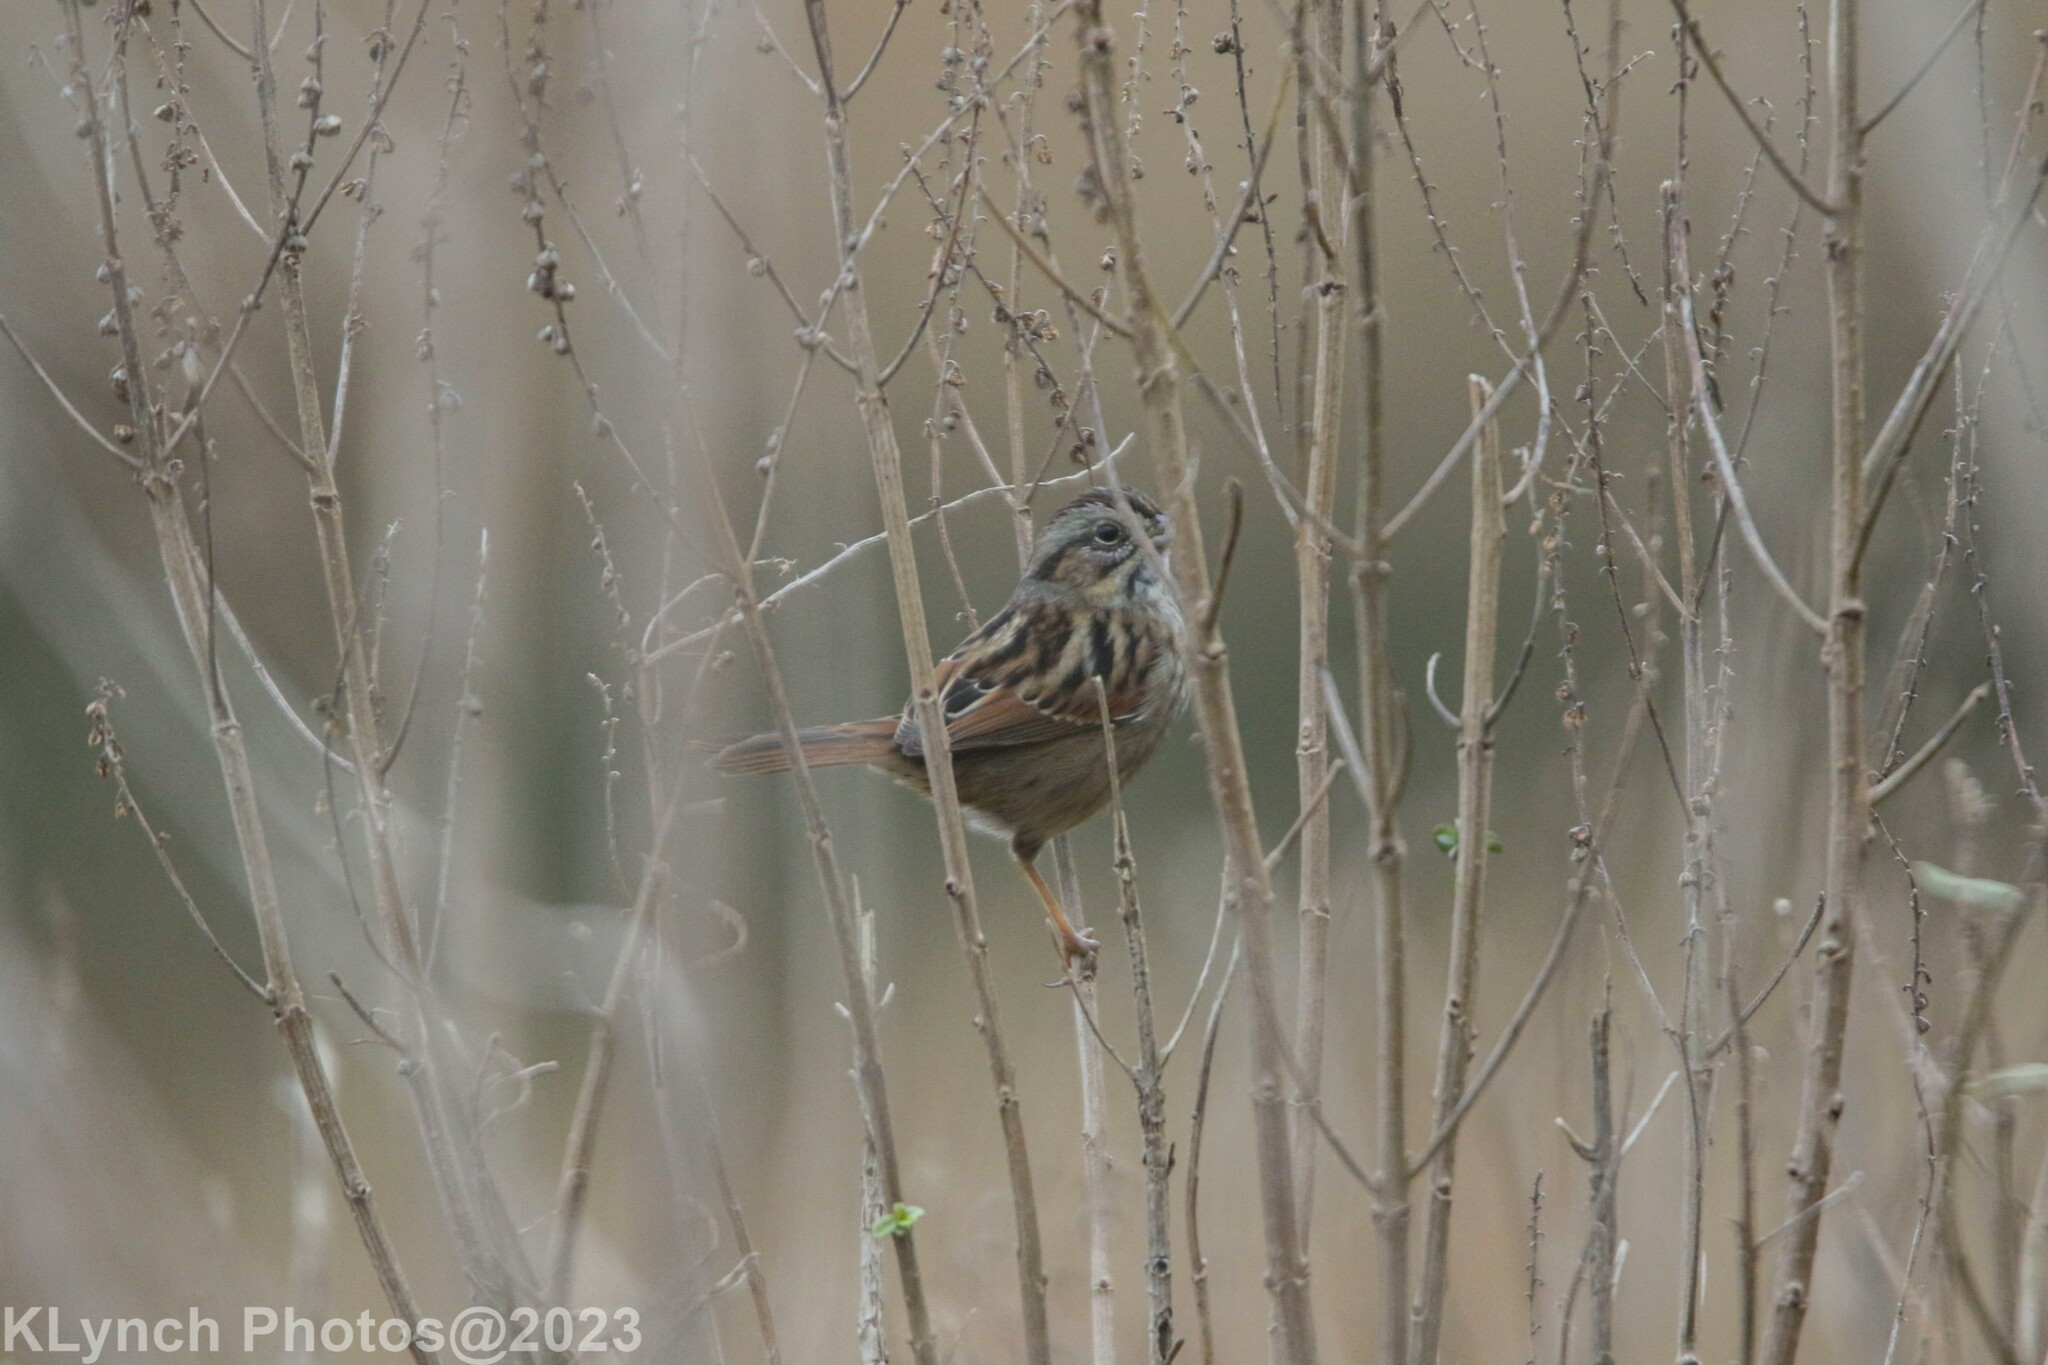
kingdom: Animalia
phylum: Chordata
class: Aves
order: Passeriformes
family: Passerellidae
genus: Melospiza
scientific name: Melospiza georgiana
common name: Swamp sparrow
